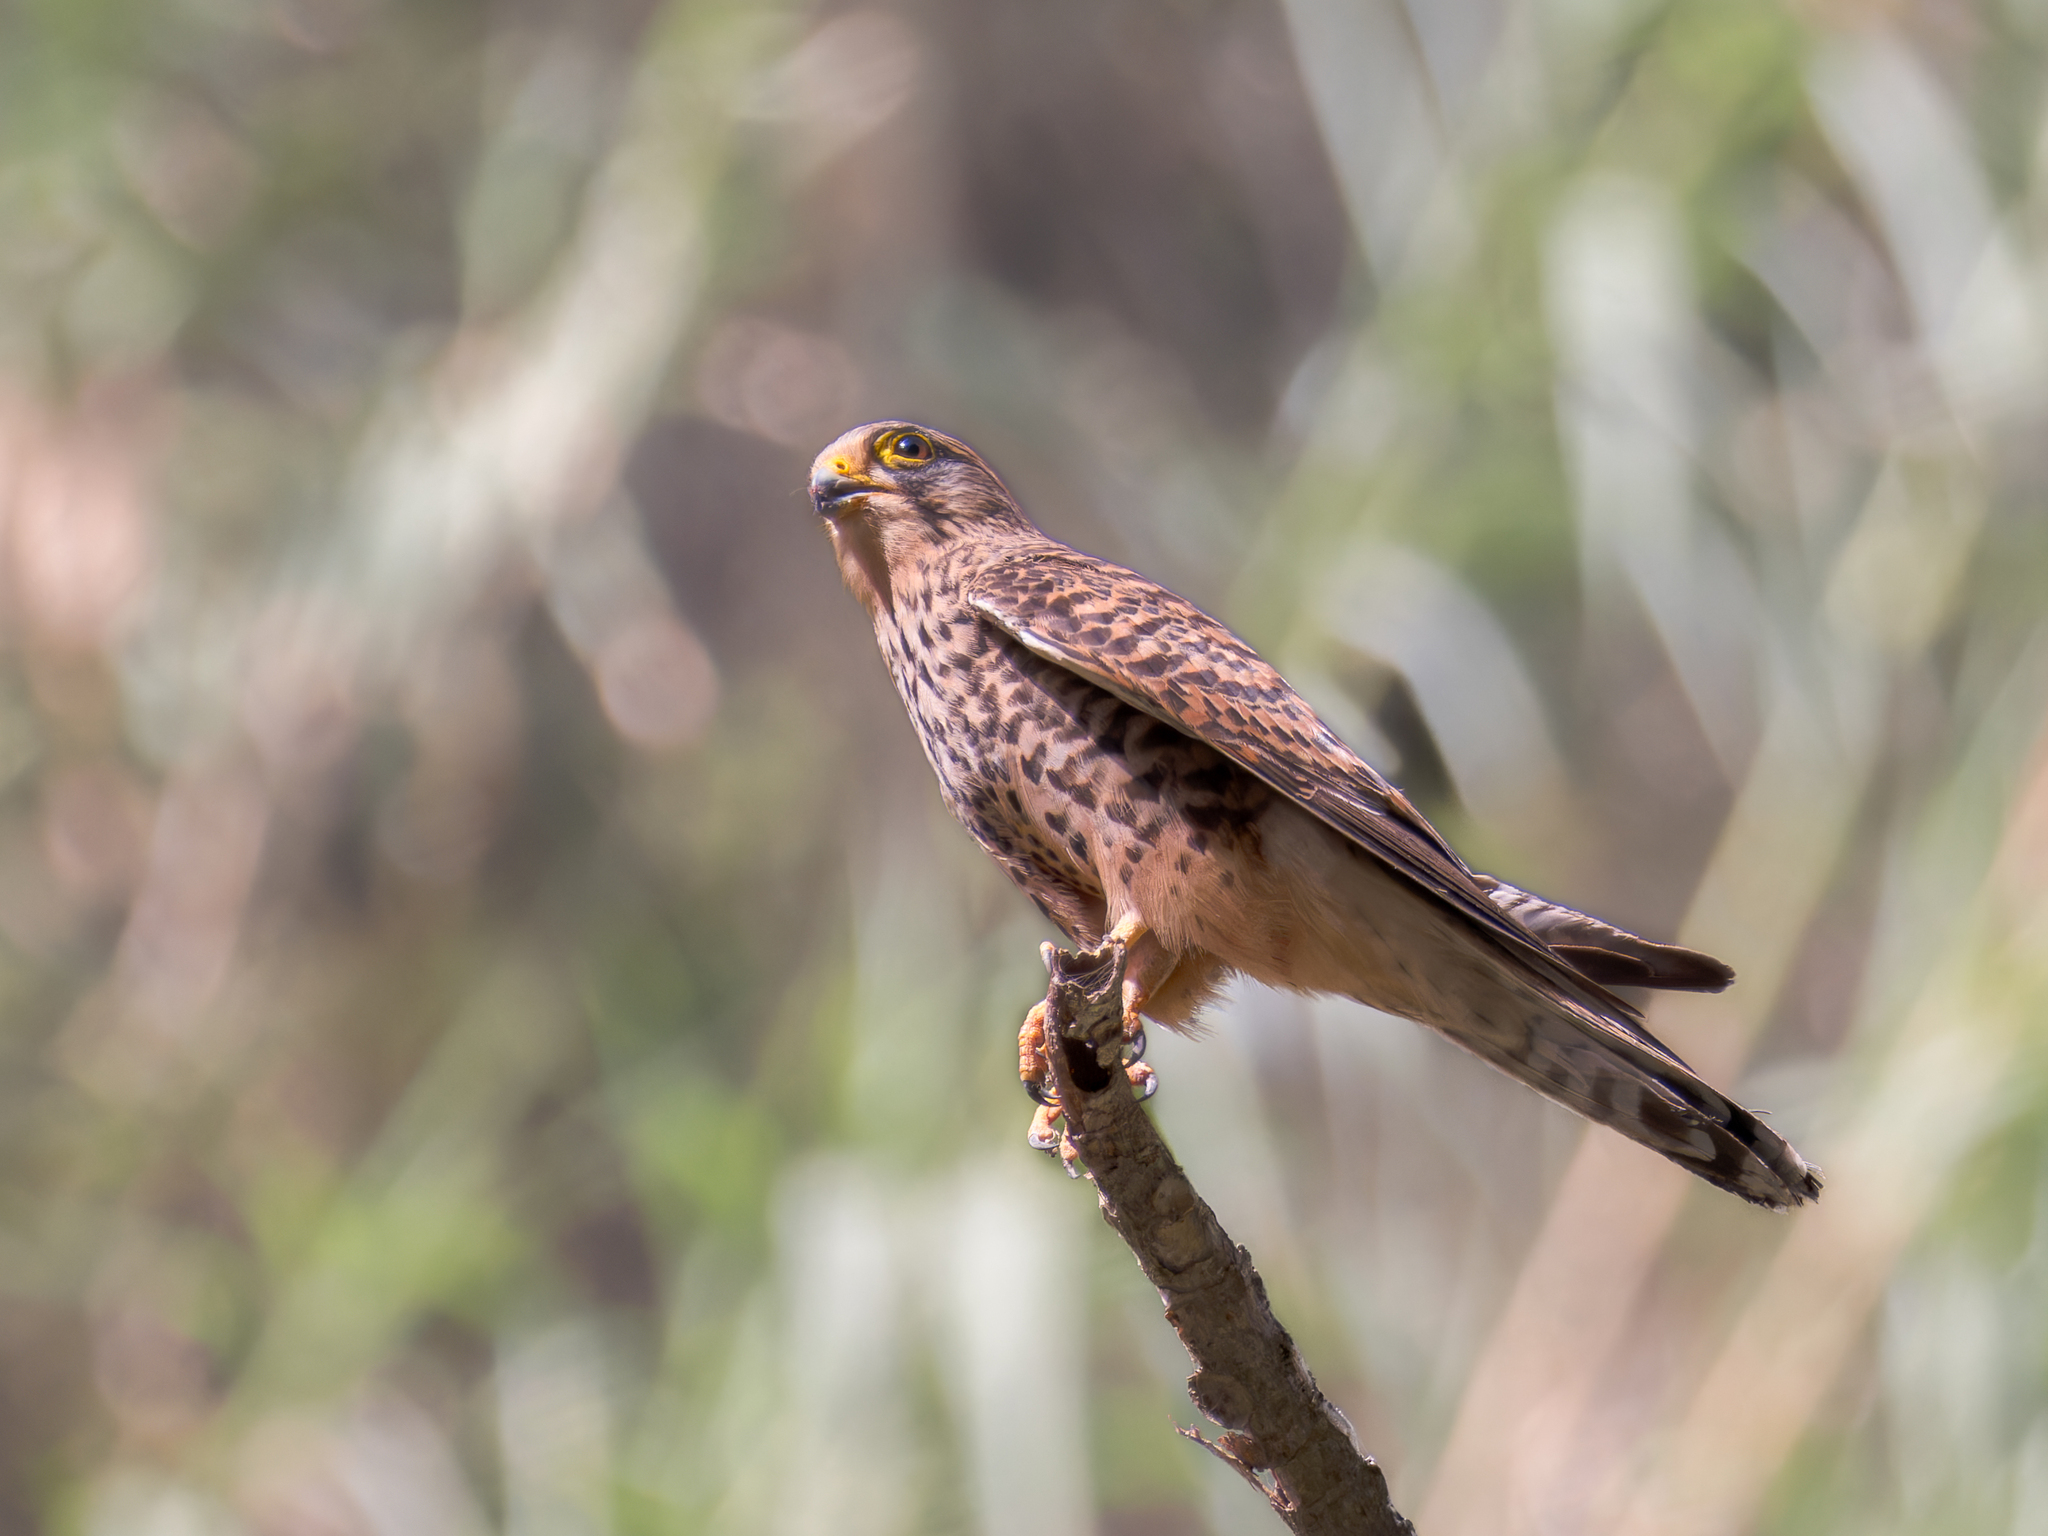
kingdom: Animalia
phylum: Chordata
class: Aves
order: Falconiformes
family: Falconidae
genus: Falco
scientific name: Falco tinnunculus
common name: Common kestrel
